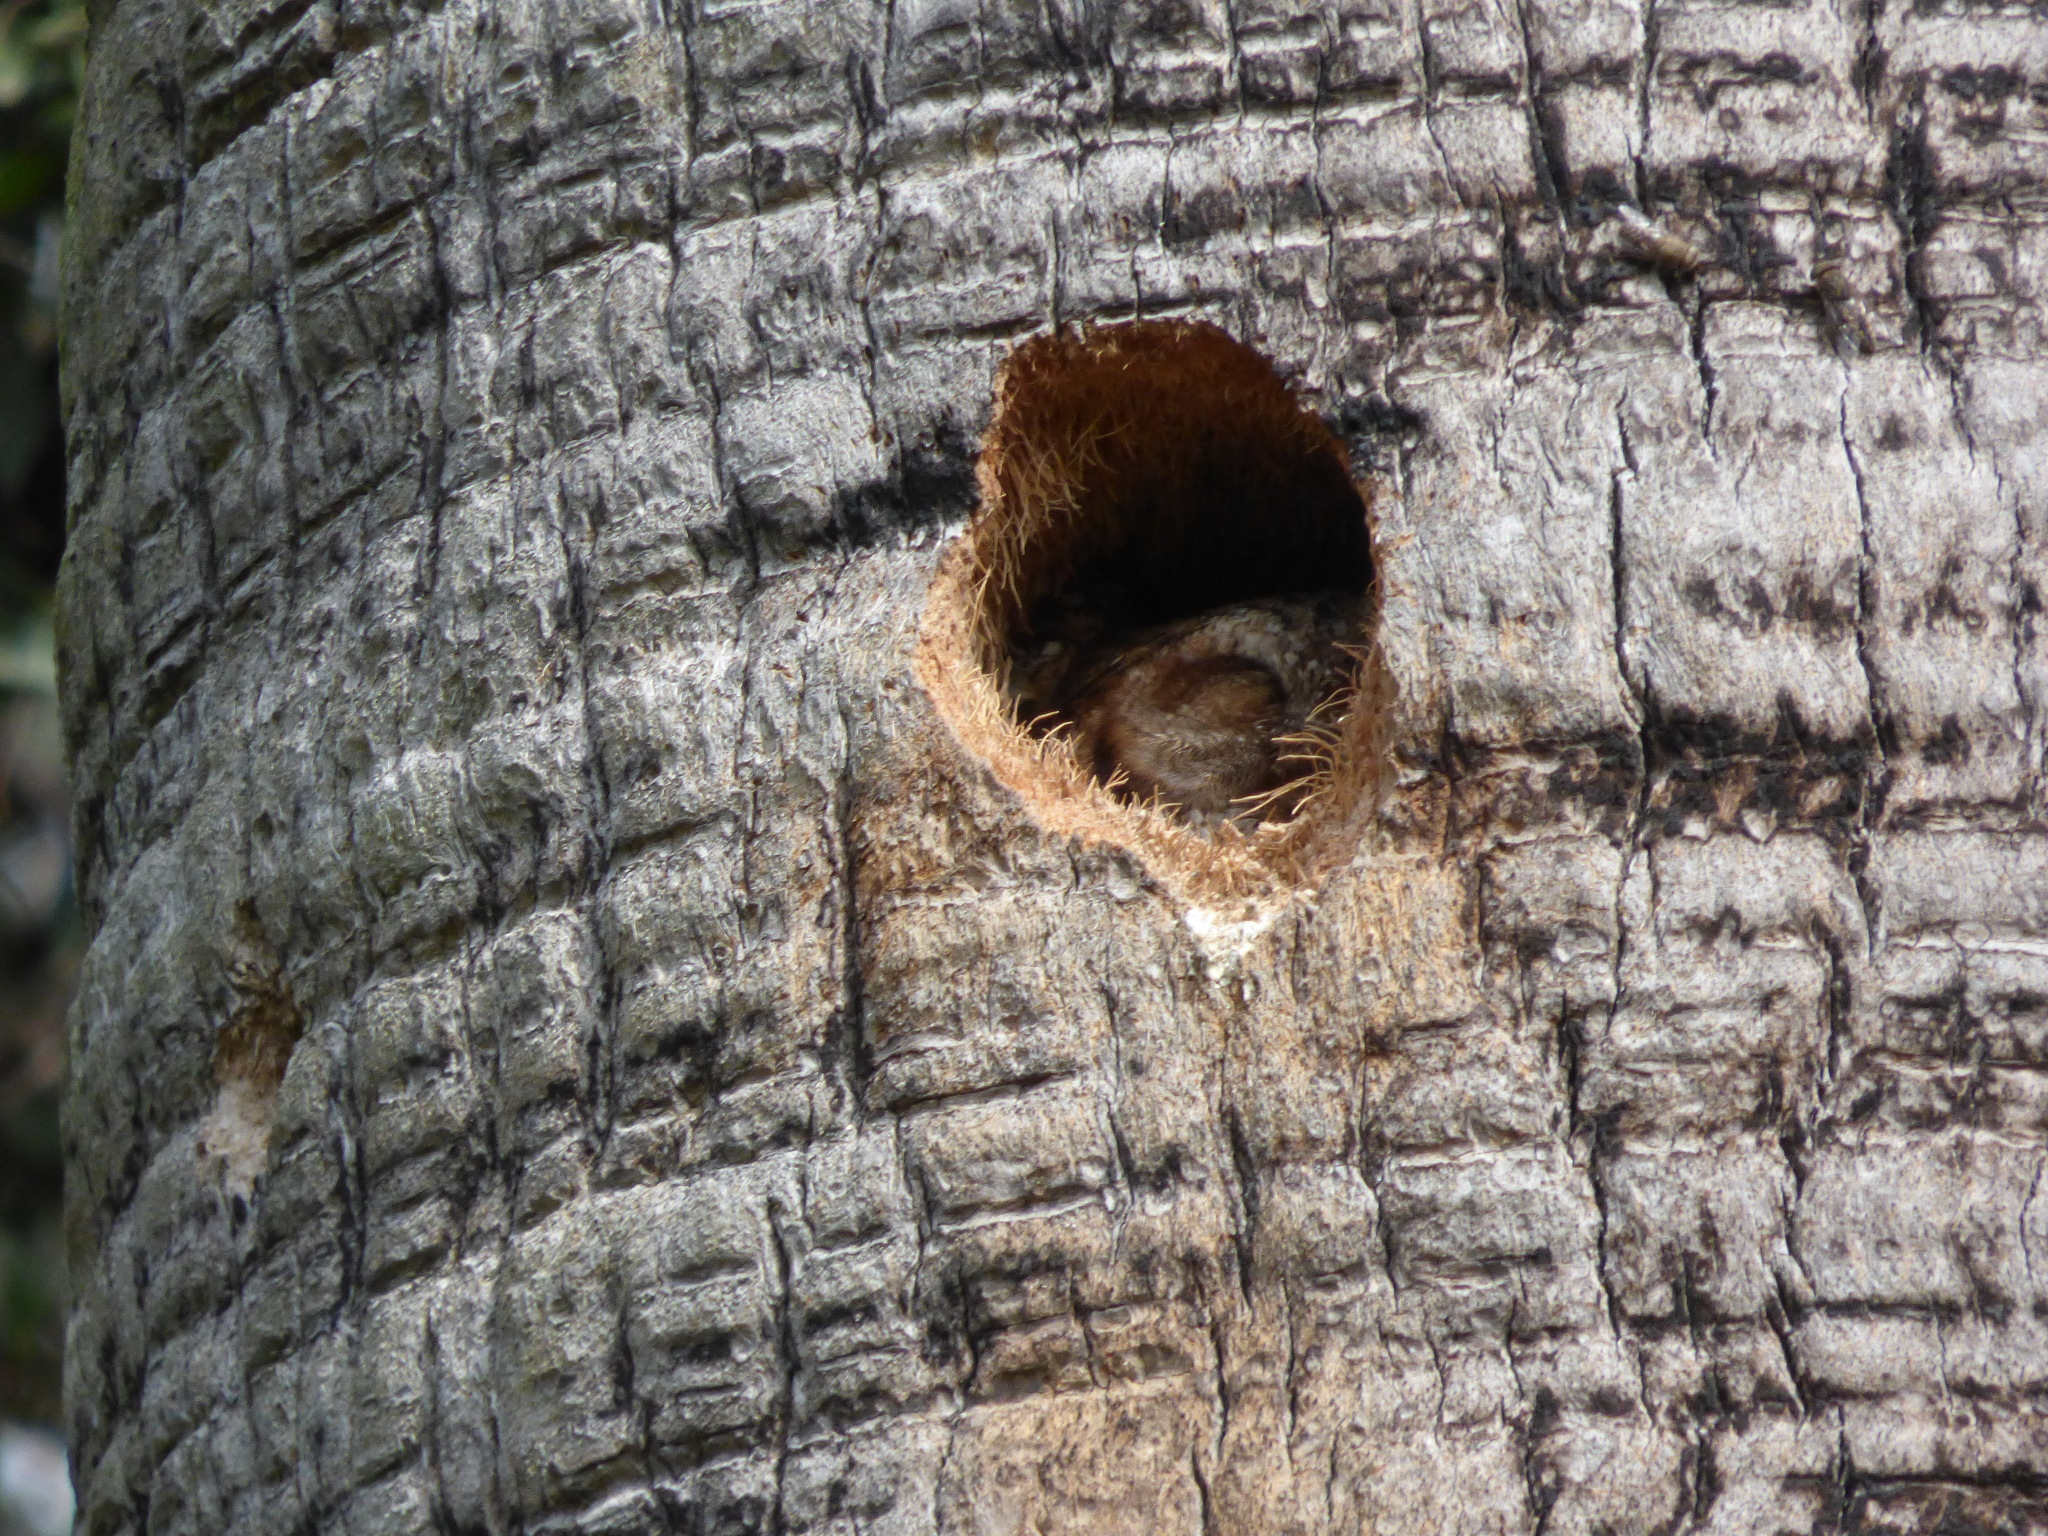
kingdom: Animalia
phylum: Chordata
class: Aves
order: Strigiformes
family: Strigidae
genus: Megascops
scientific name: Megascops choliba
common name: Tropical screech-owl
